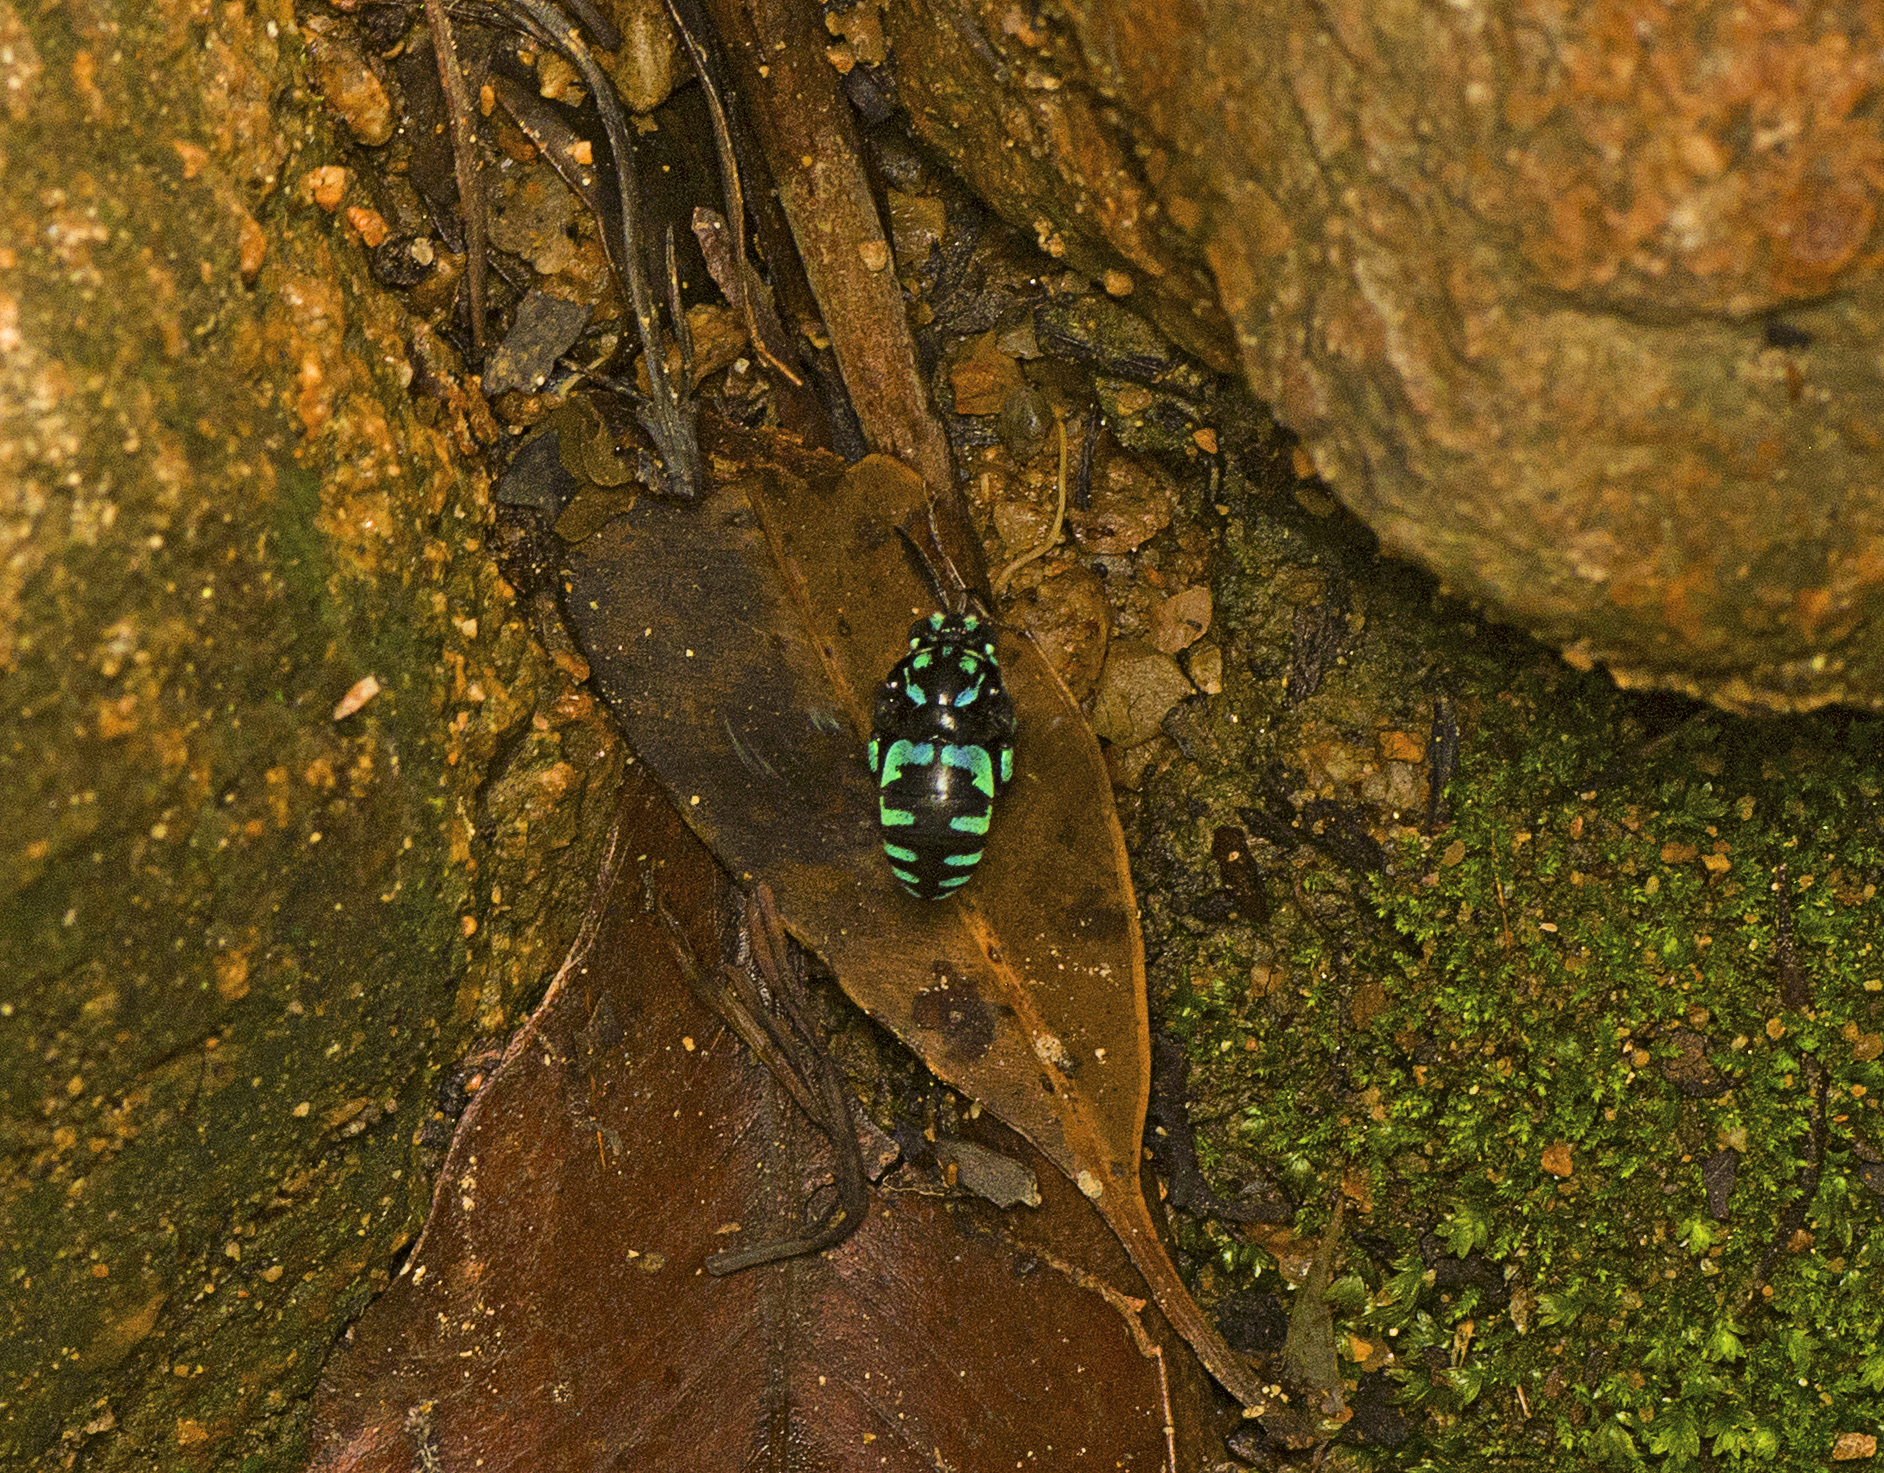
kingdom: Animalia
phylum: Arthropoda
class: Insecta
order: Hymenoptera
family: Apidae
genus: Thyreus
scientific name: Thyreus nitidulus
